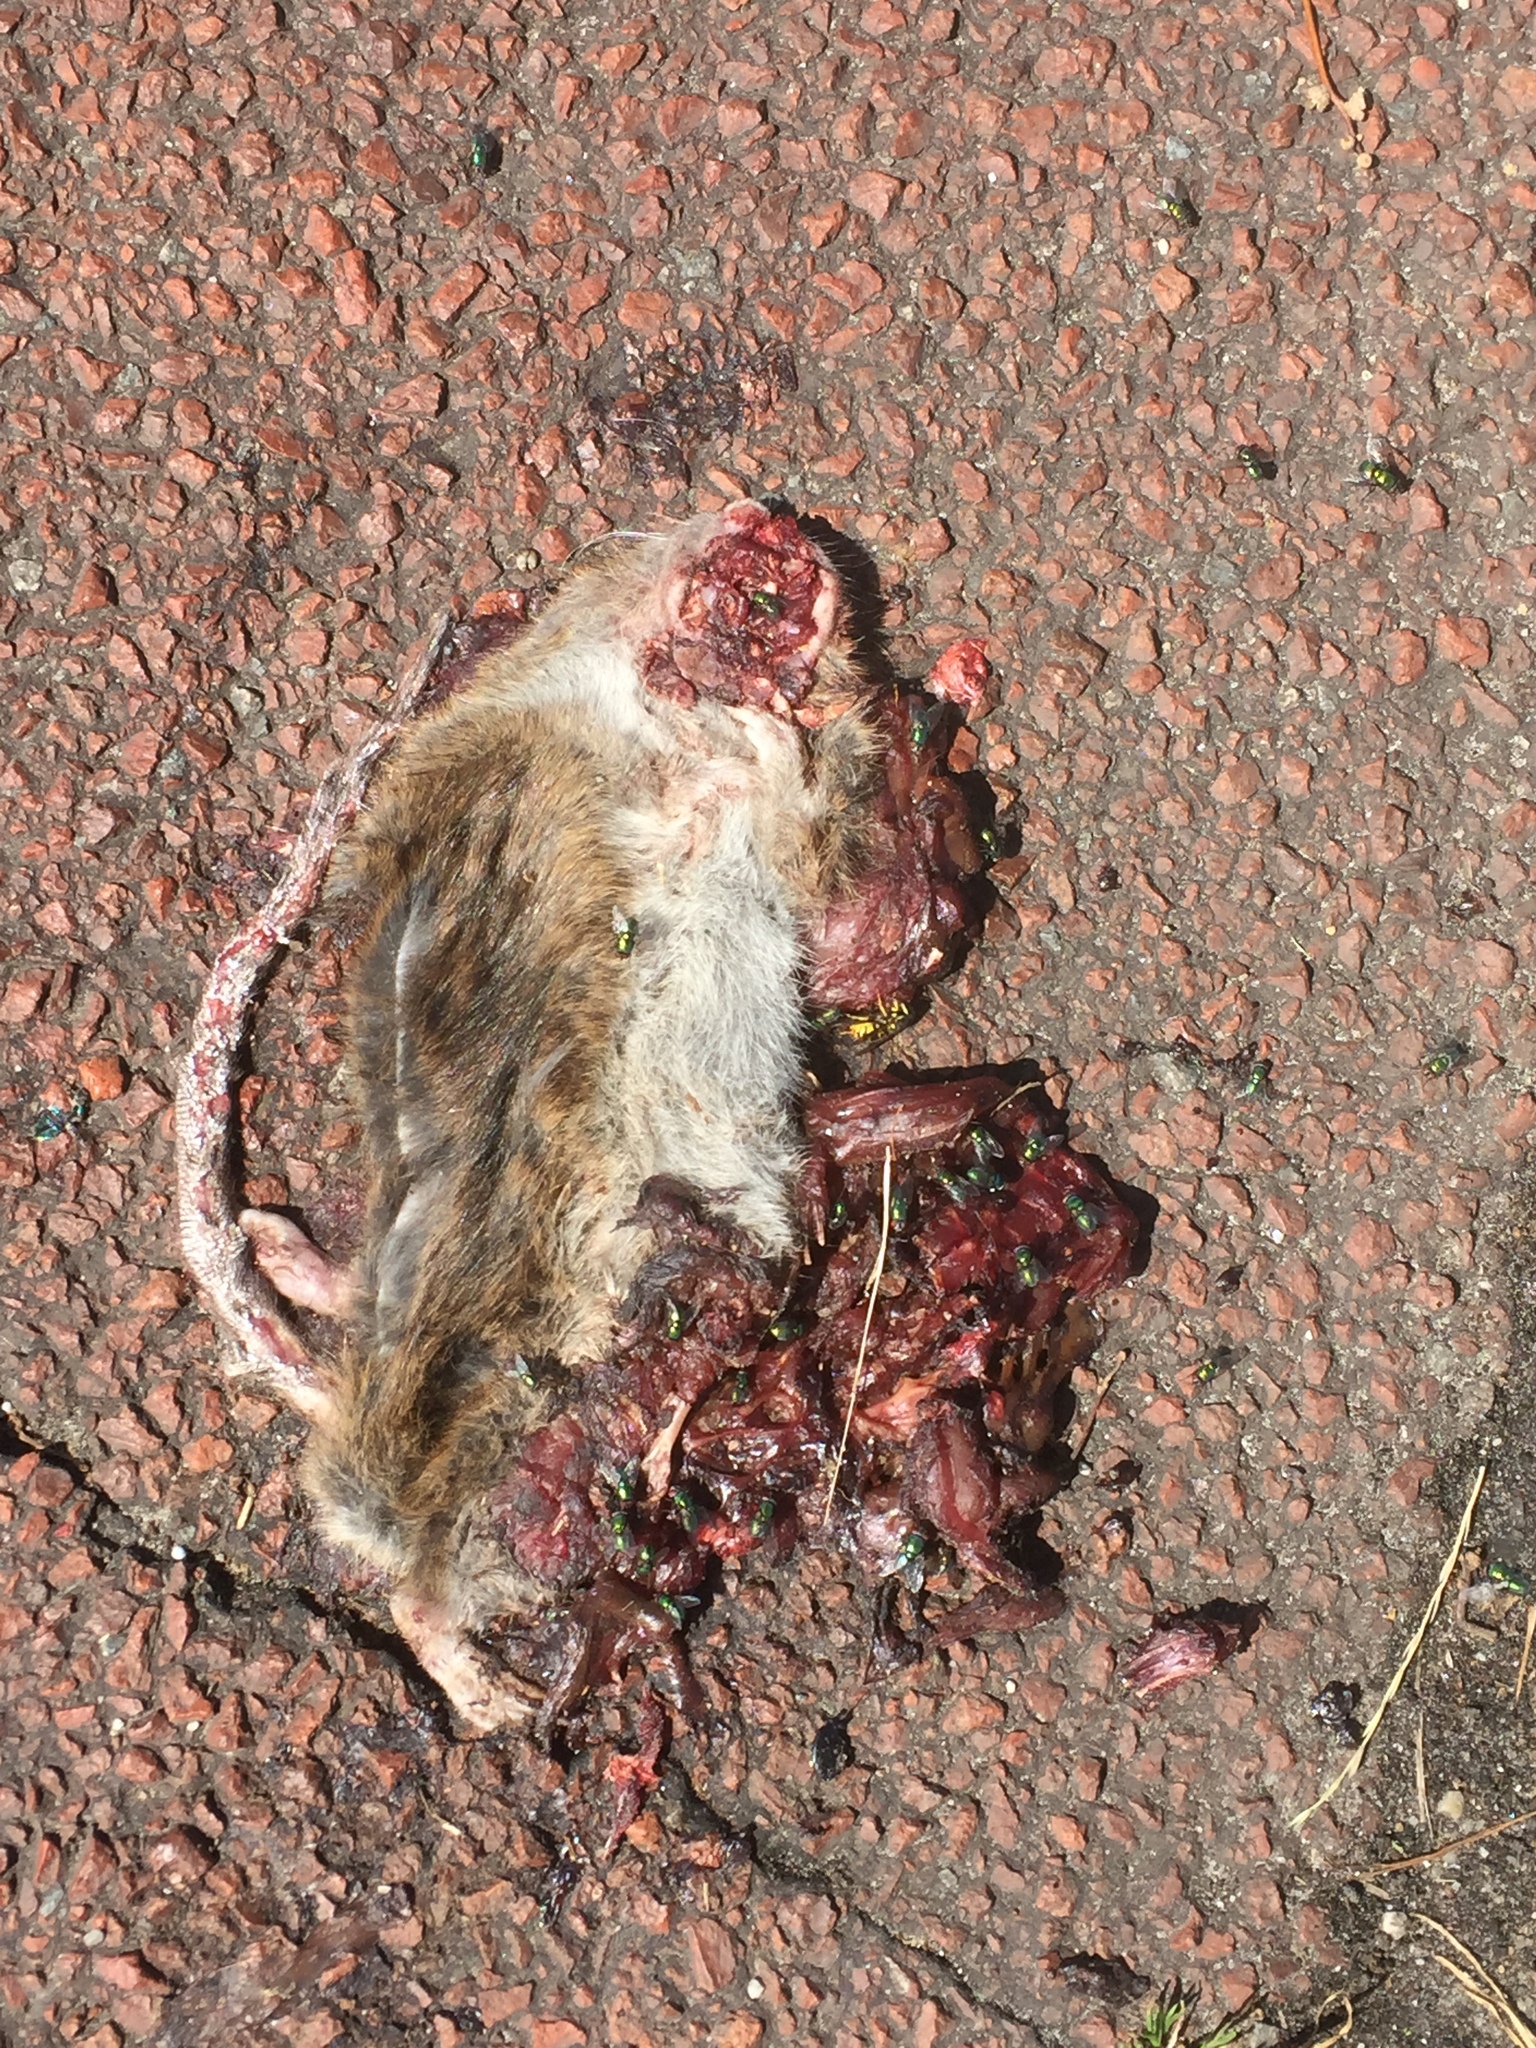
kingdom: Animalia
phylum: Chordata
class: Mammalia
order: Rodentia
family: Muridae
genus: Rattus
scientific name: Rattus norvegicus
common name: Brown rat
